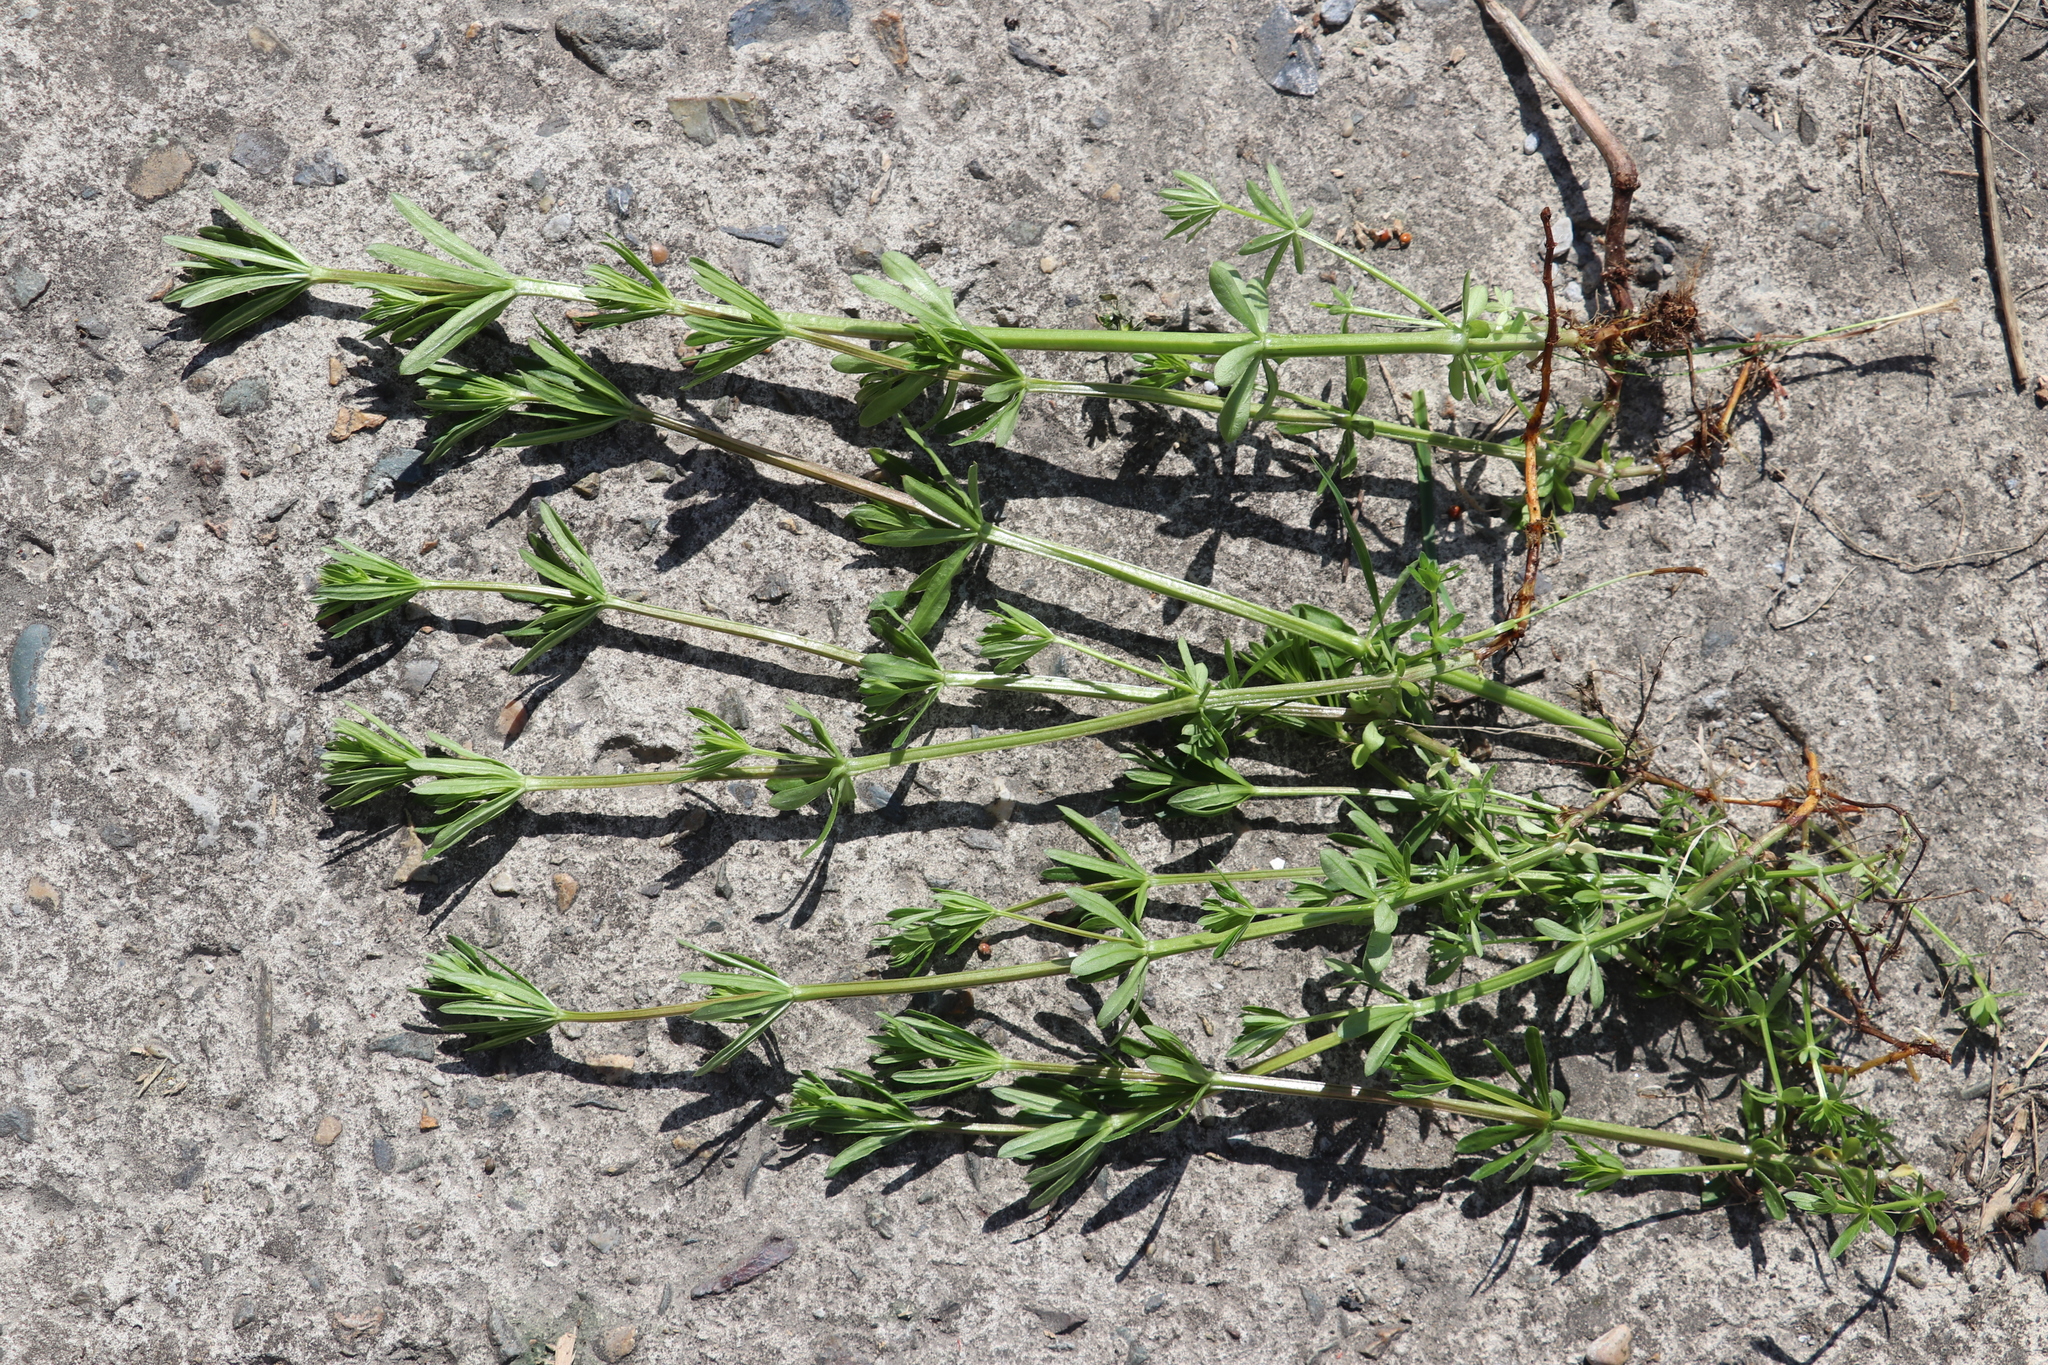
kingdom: Plantae
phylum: Tracheophyta
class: Magnoliopsida
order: Gentianales
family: Rubiaceae
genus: Galium
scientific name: Galium mollugo
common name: Hedge bedstraw
